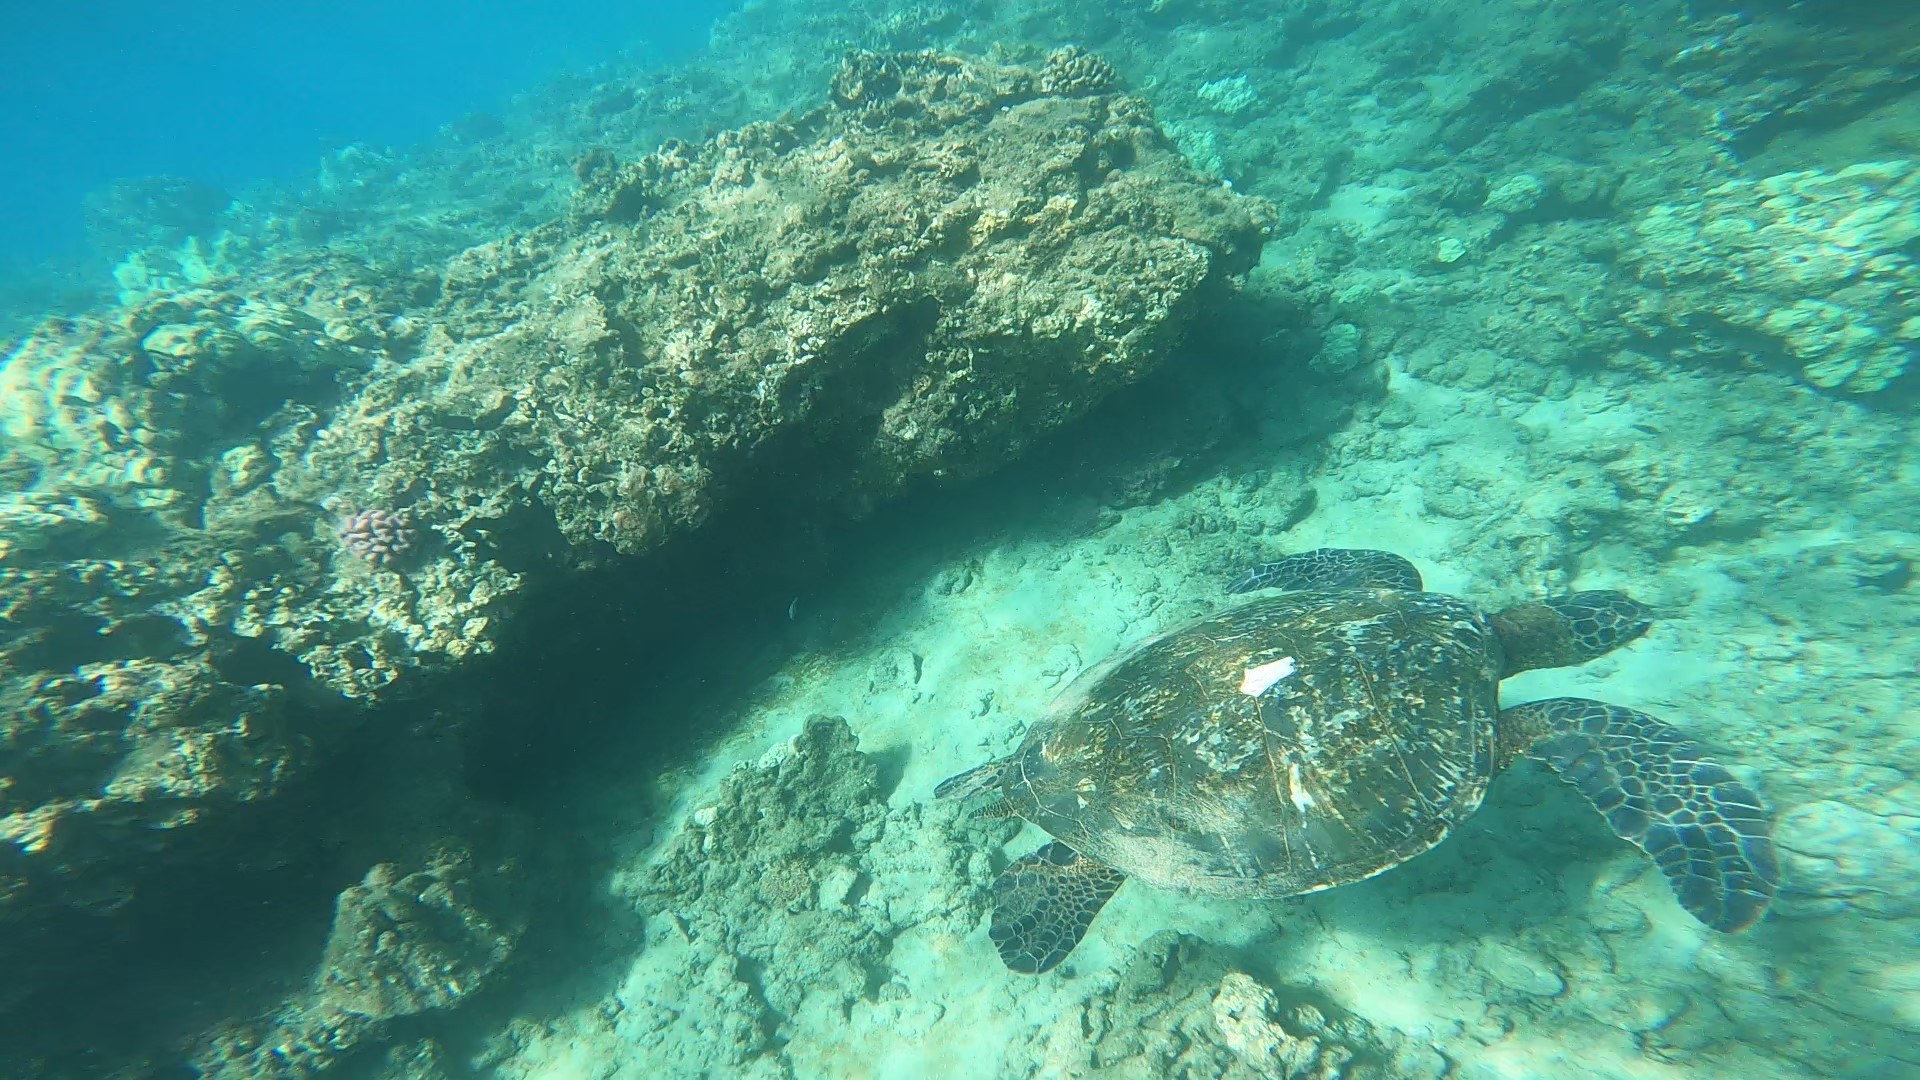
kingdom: Animalia
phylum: Chordata
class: Testudines
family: Cheloniidae
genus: Chelonia
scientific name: Chelonia mydas
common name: Green turtle
